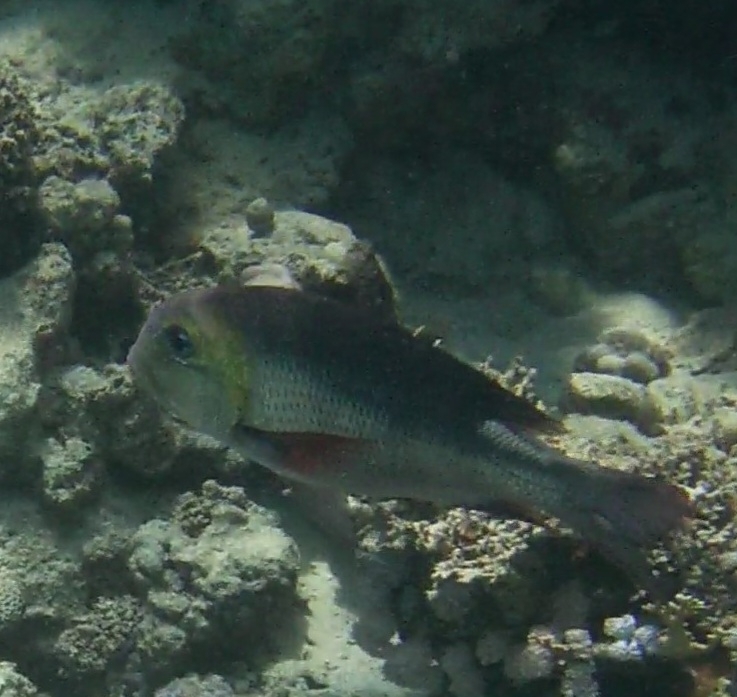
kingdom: Animalia
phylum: Chordata
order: Perciformes
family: Lethrinidae
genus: Monotaxis
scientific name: Monotaxis grandoculis
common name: Bigeye emperor
